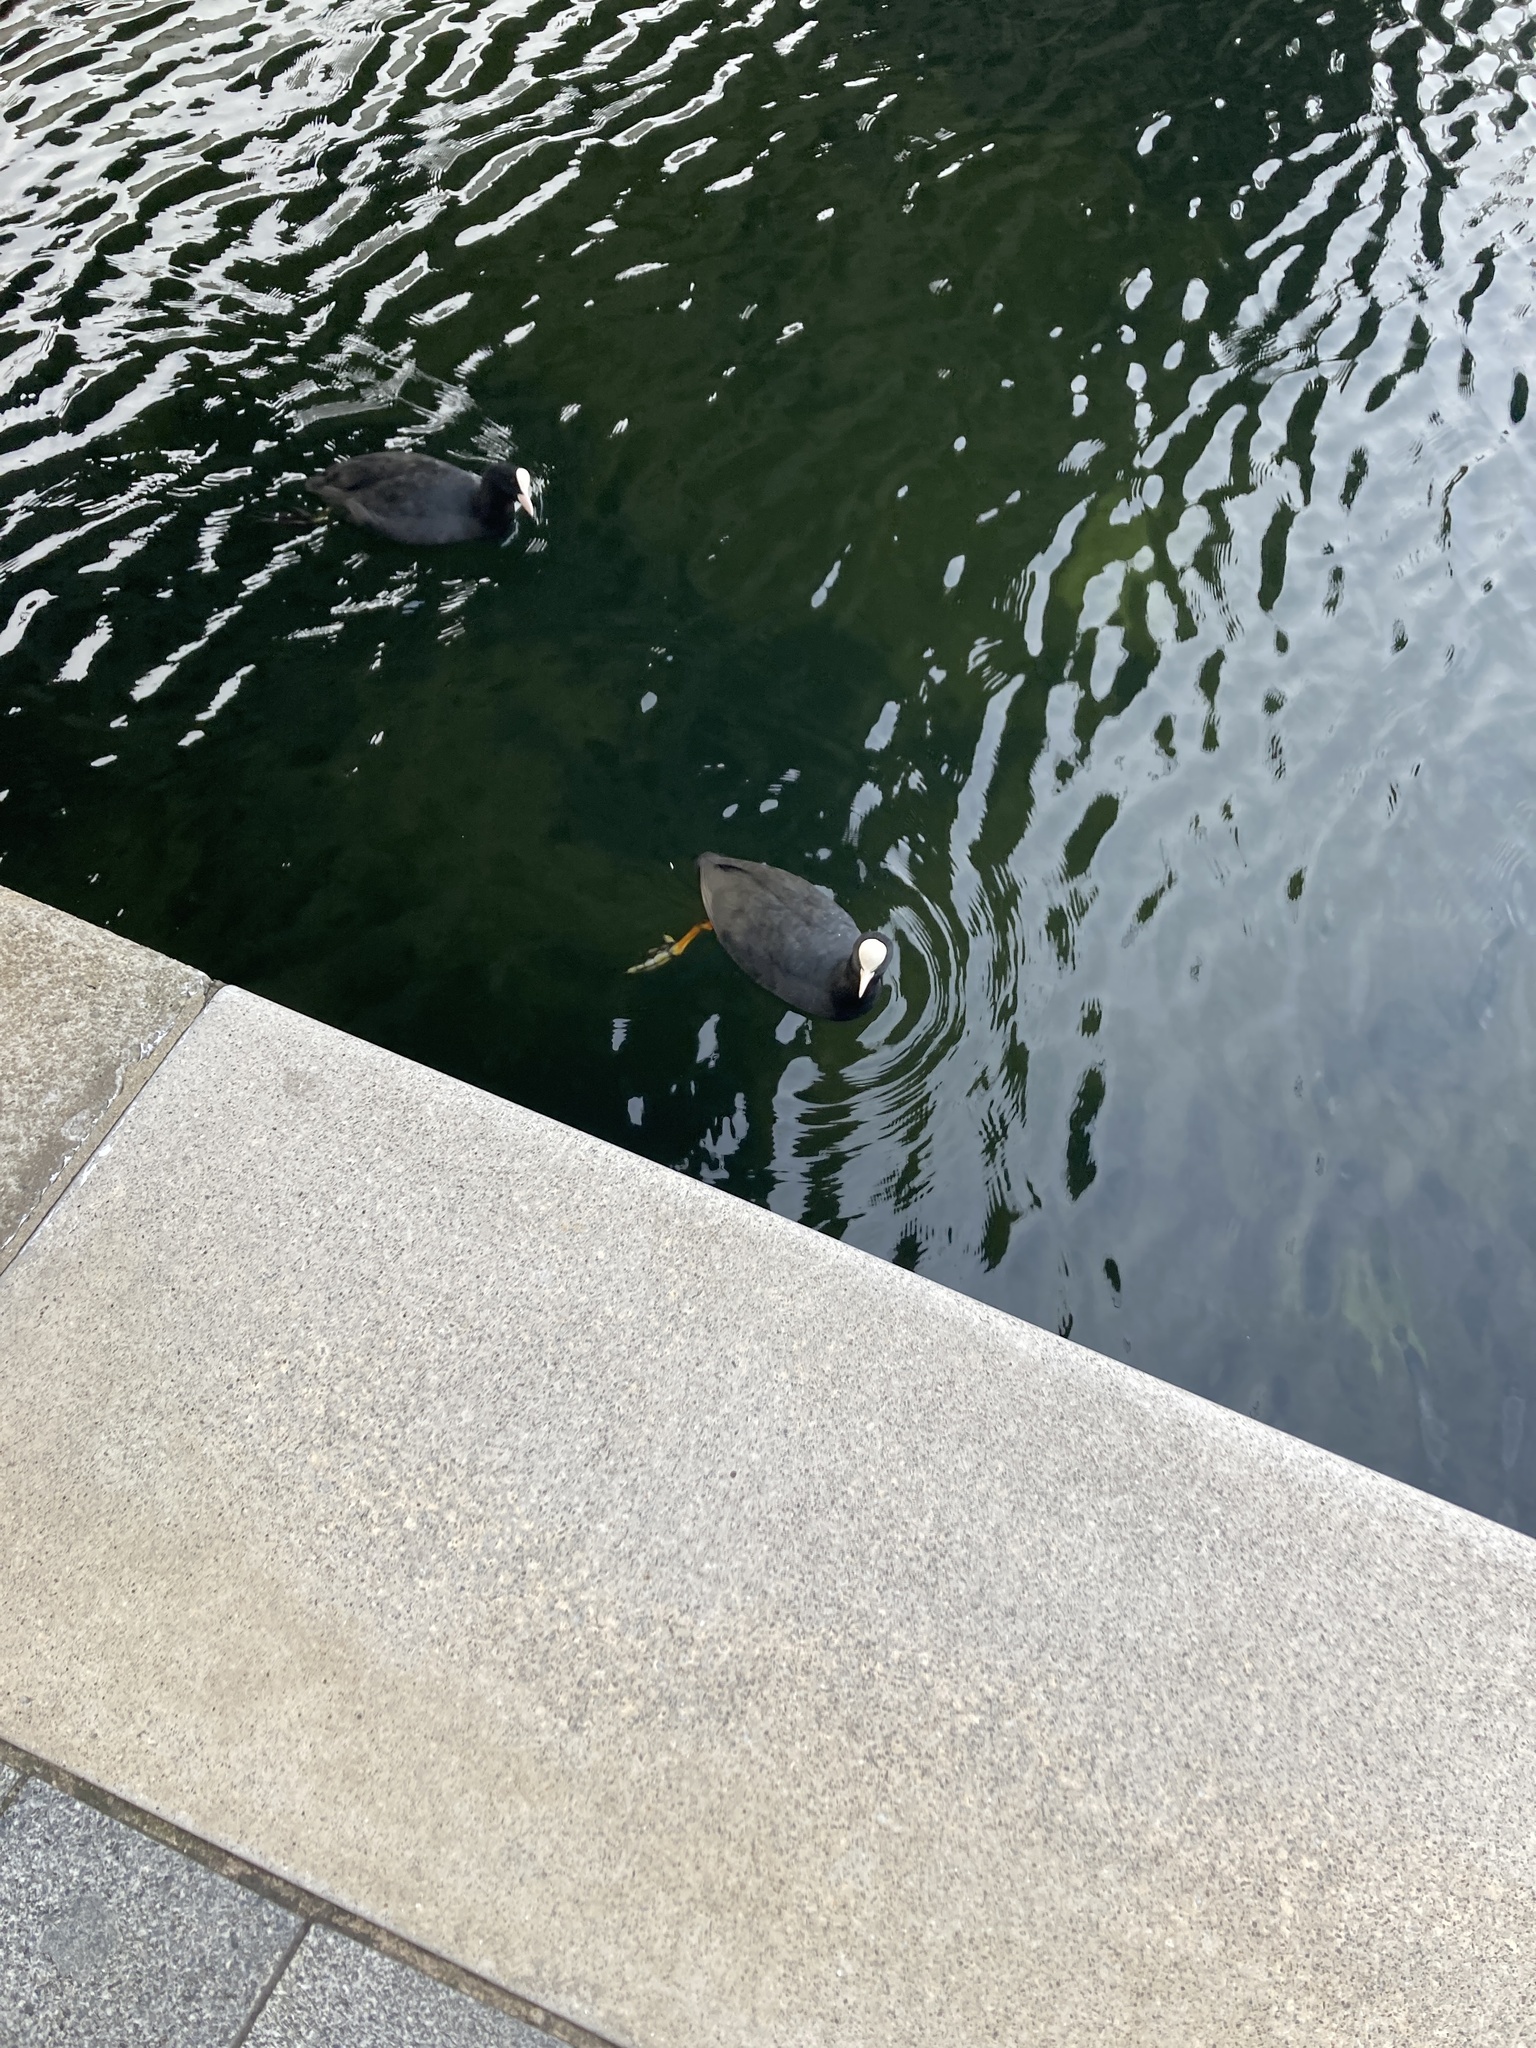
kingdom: Animalia
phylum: Chordata
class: Aves
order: Gruiformes
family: Rallidae
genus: Fulica
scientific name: Fulica atra
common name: Eurasian coot
